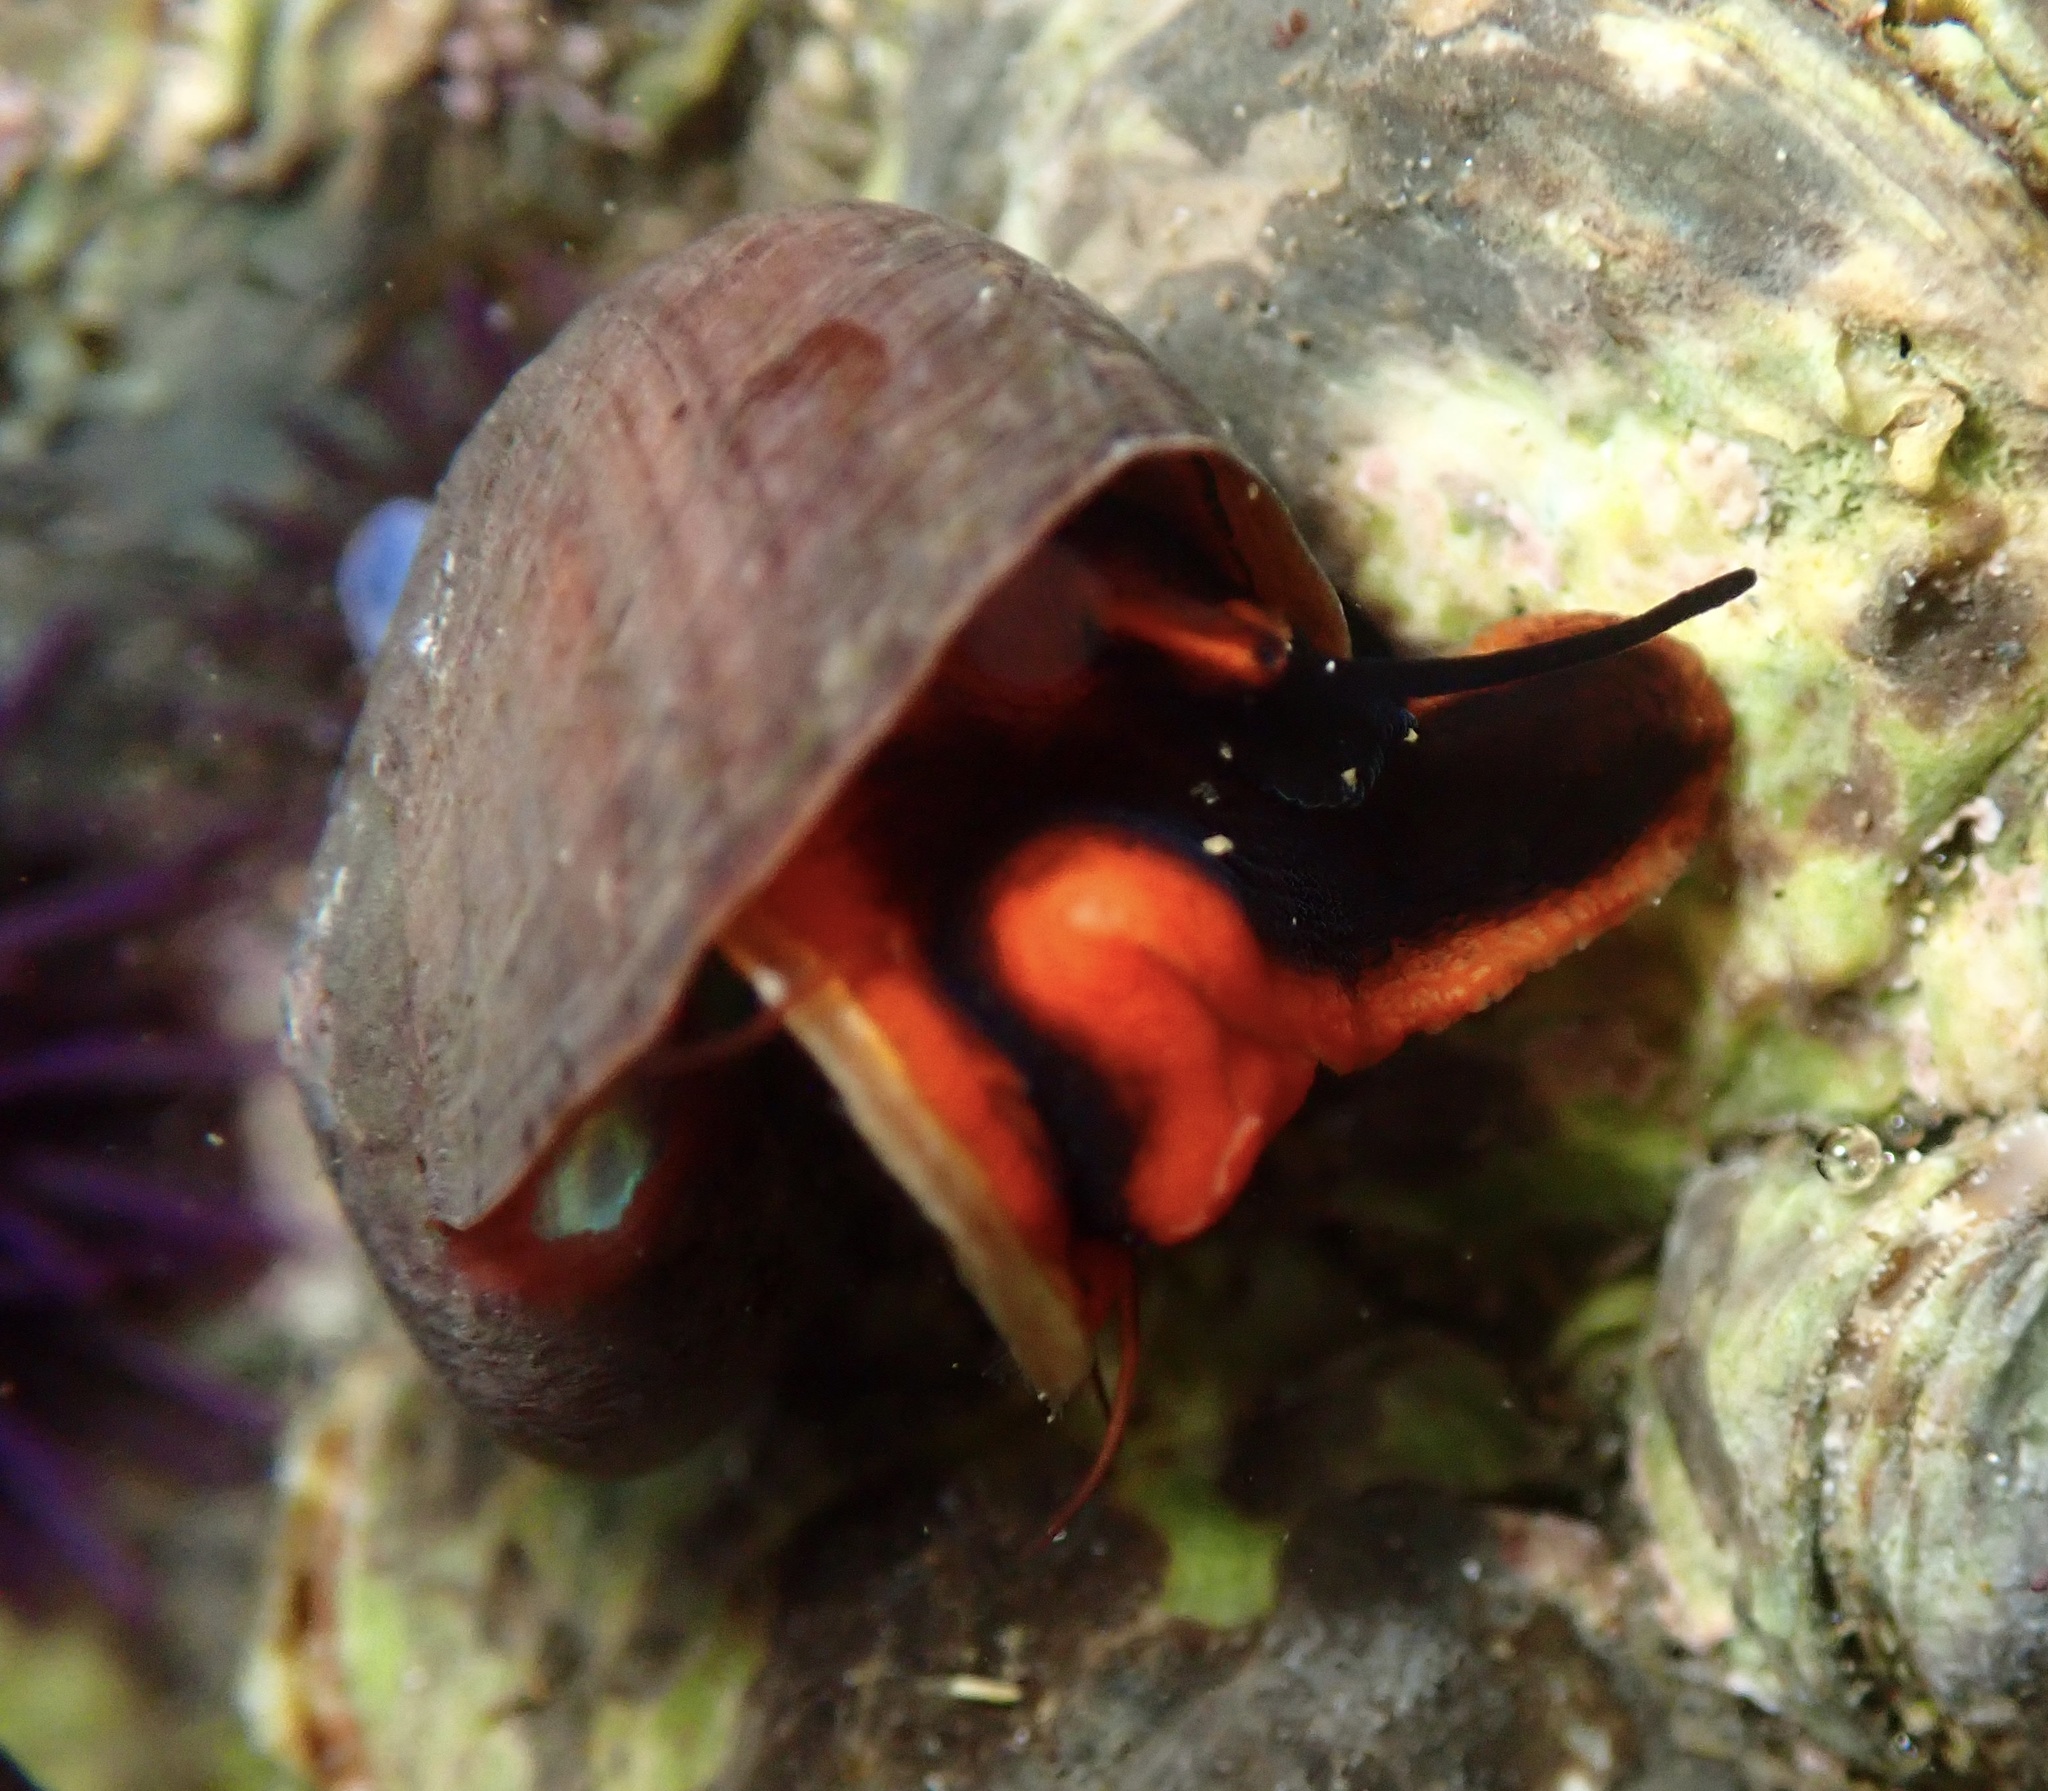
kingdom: Animalia
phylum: Mollusca
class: Gastropoda
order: Trochida
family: Tegulidae
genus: Norrisia
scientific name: Norrisia norrisii
